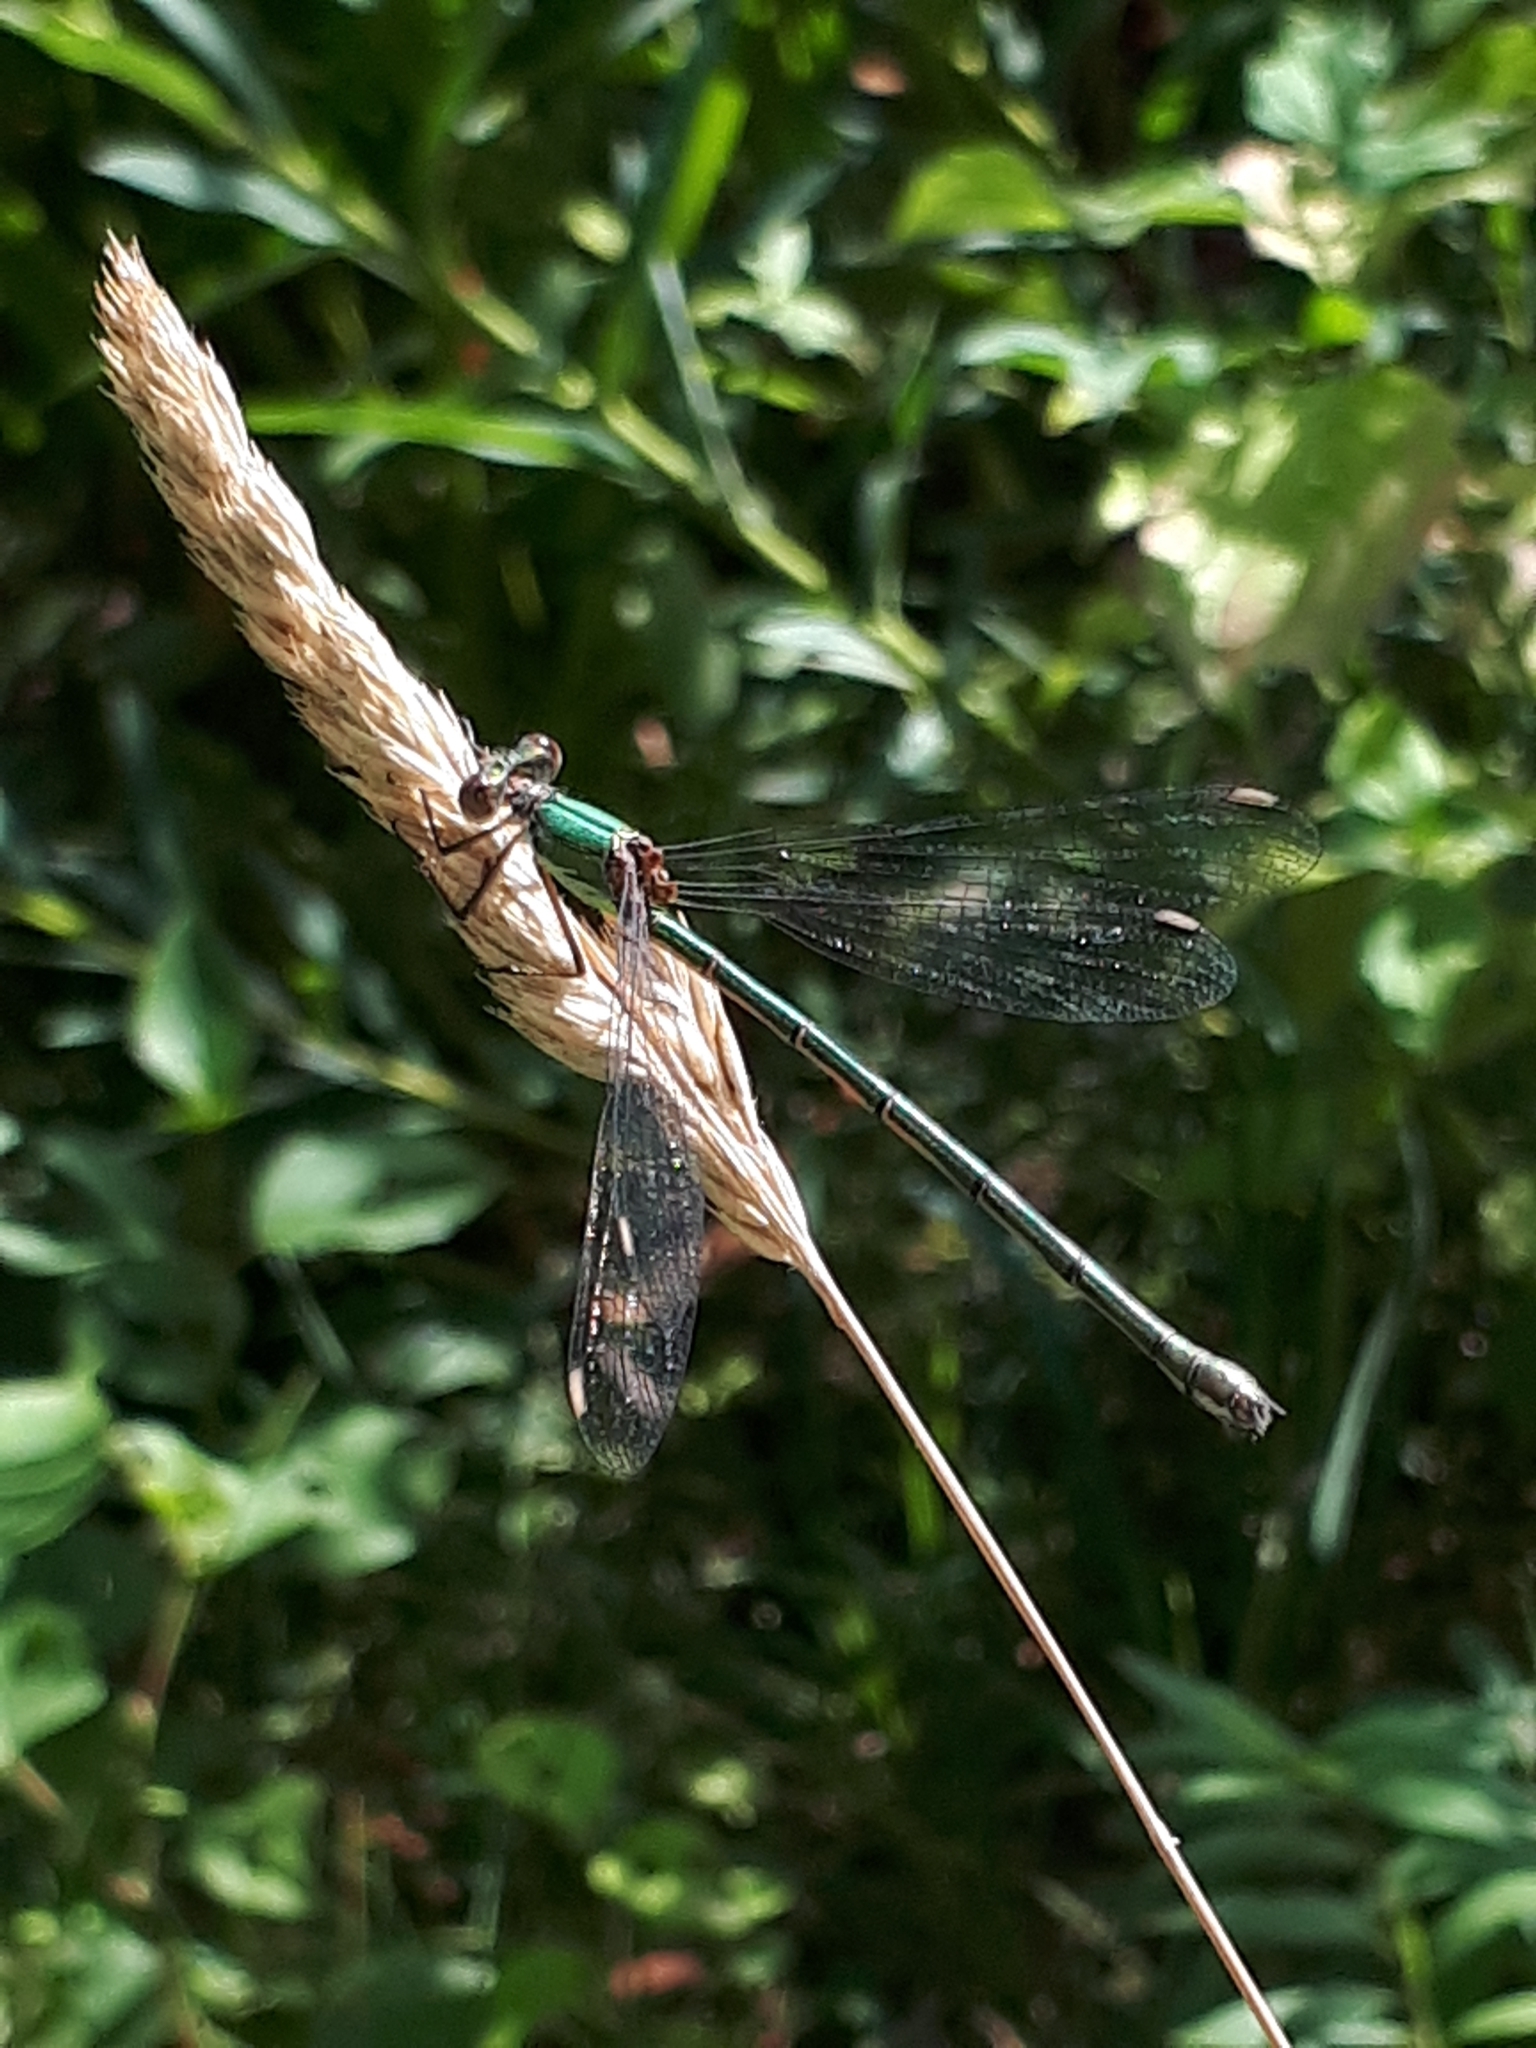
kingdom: Animalia
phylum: Arthropoda
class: Insecta
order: Odonata
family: Lestidae
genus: Chalcolestes
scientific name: Chalcolestes viridis
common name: Green emerald damselfly
